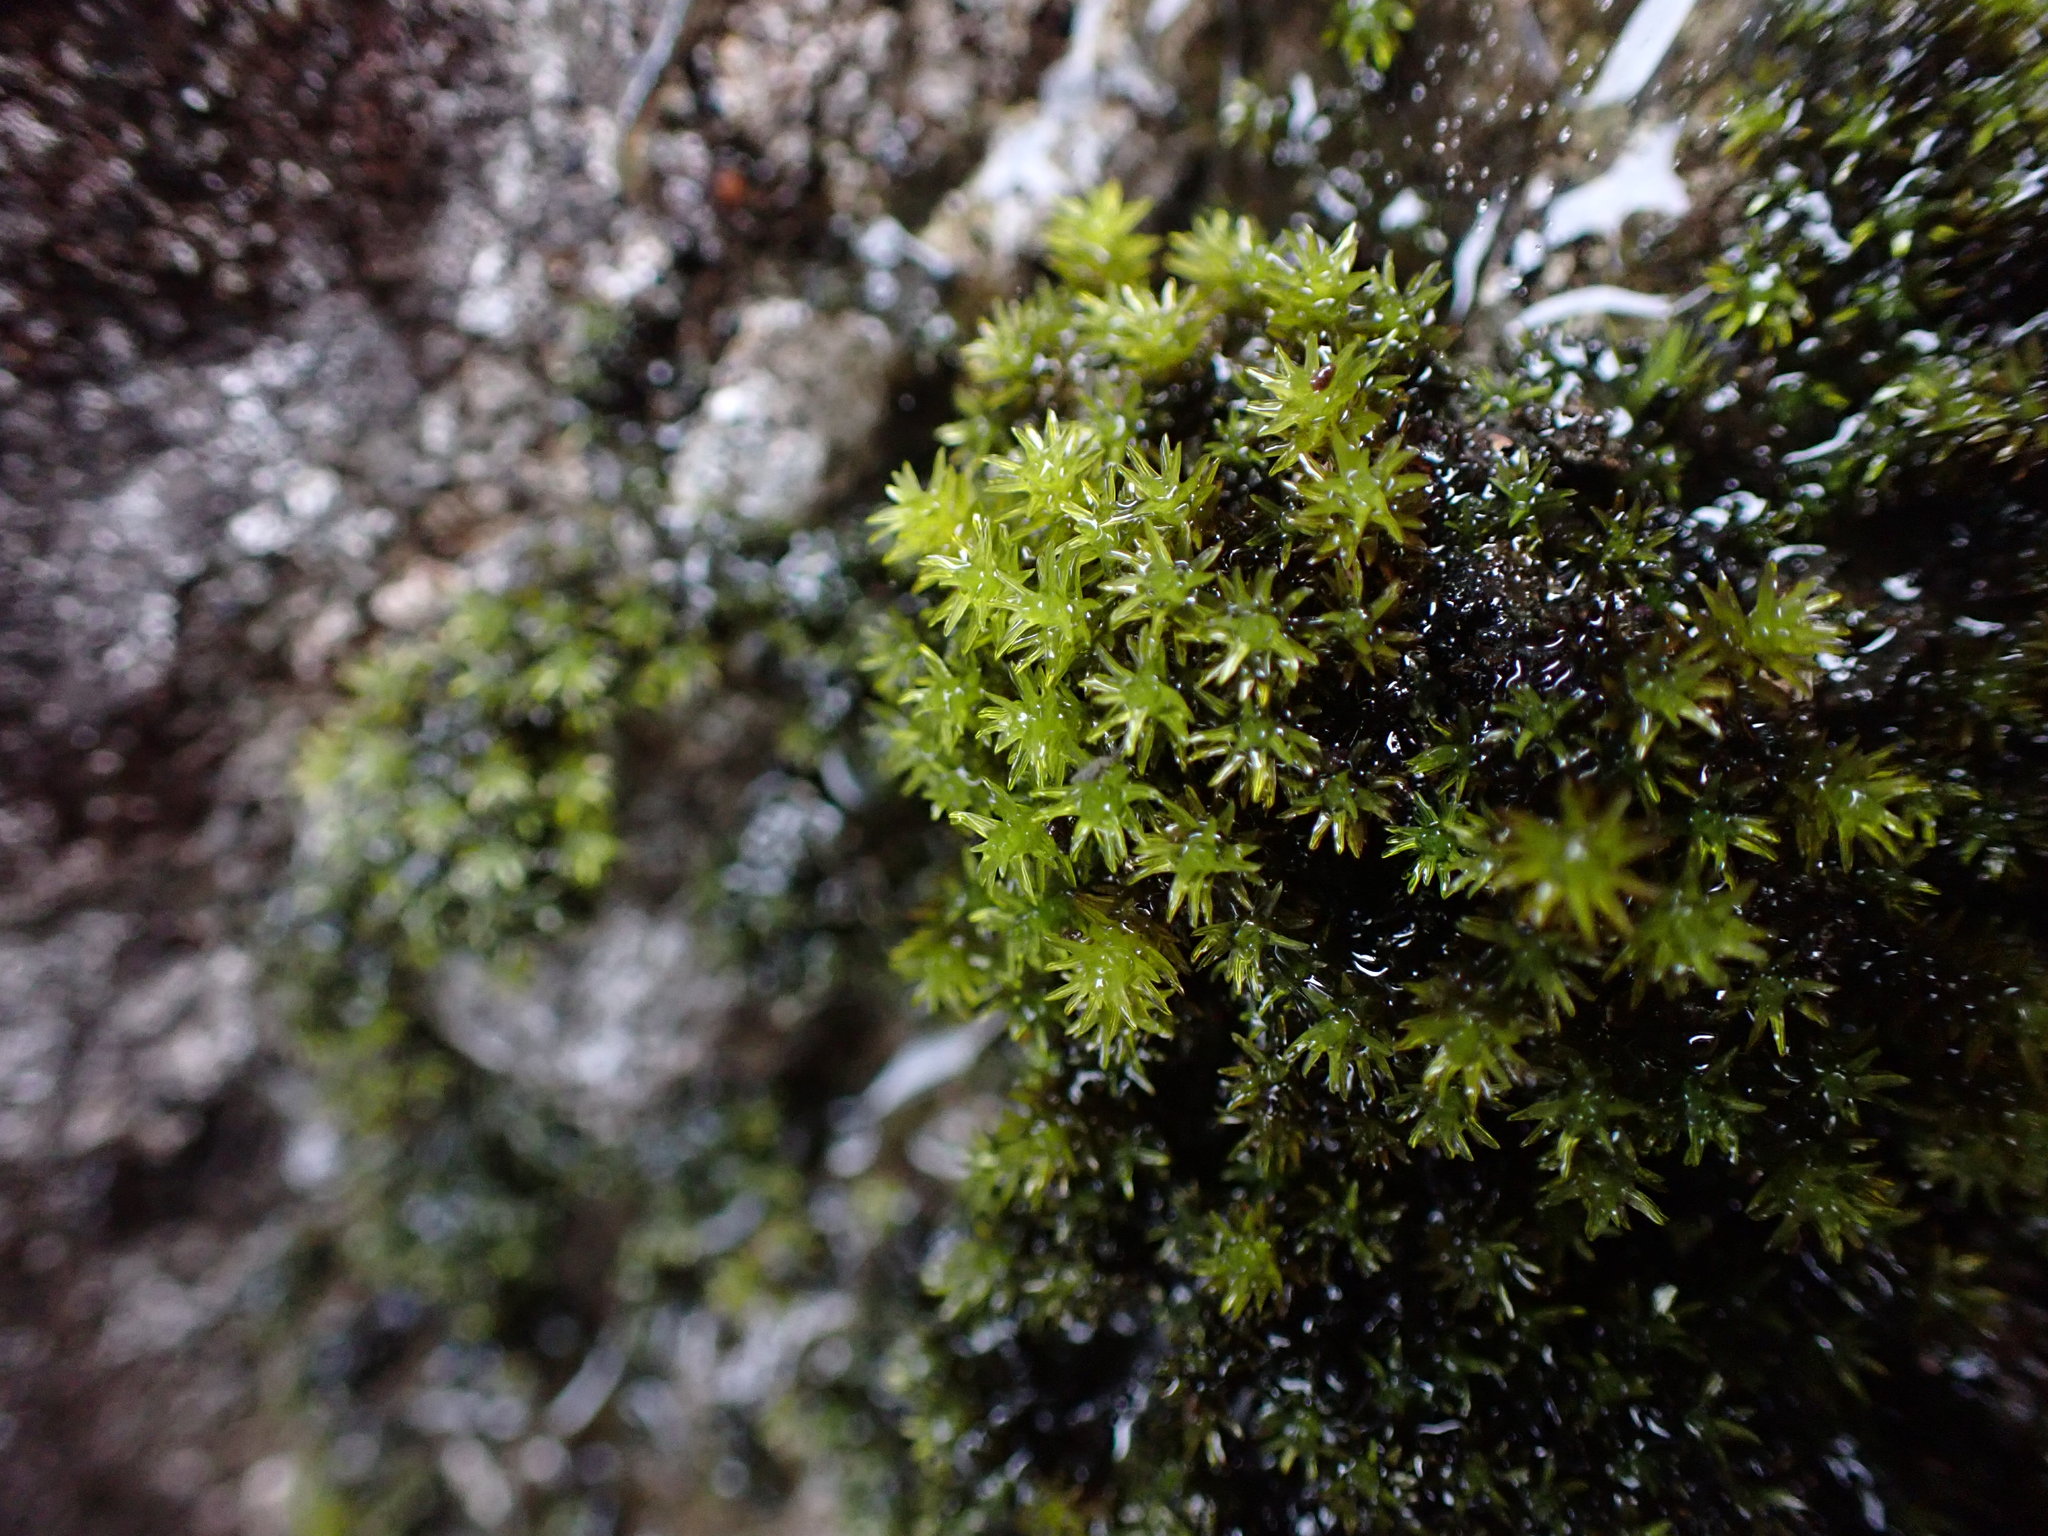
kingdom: Plantae
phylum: Bryophyta
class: Bryopsida
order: Grimmiales
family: Grimmiaceae
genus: Codriophorus
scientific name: Codriophorus acicularis
